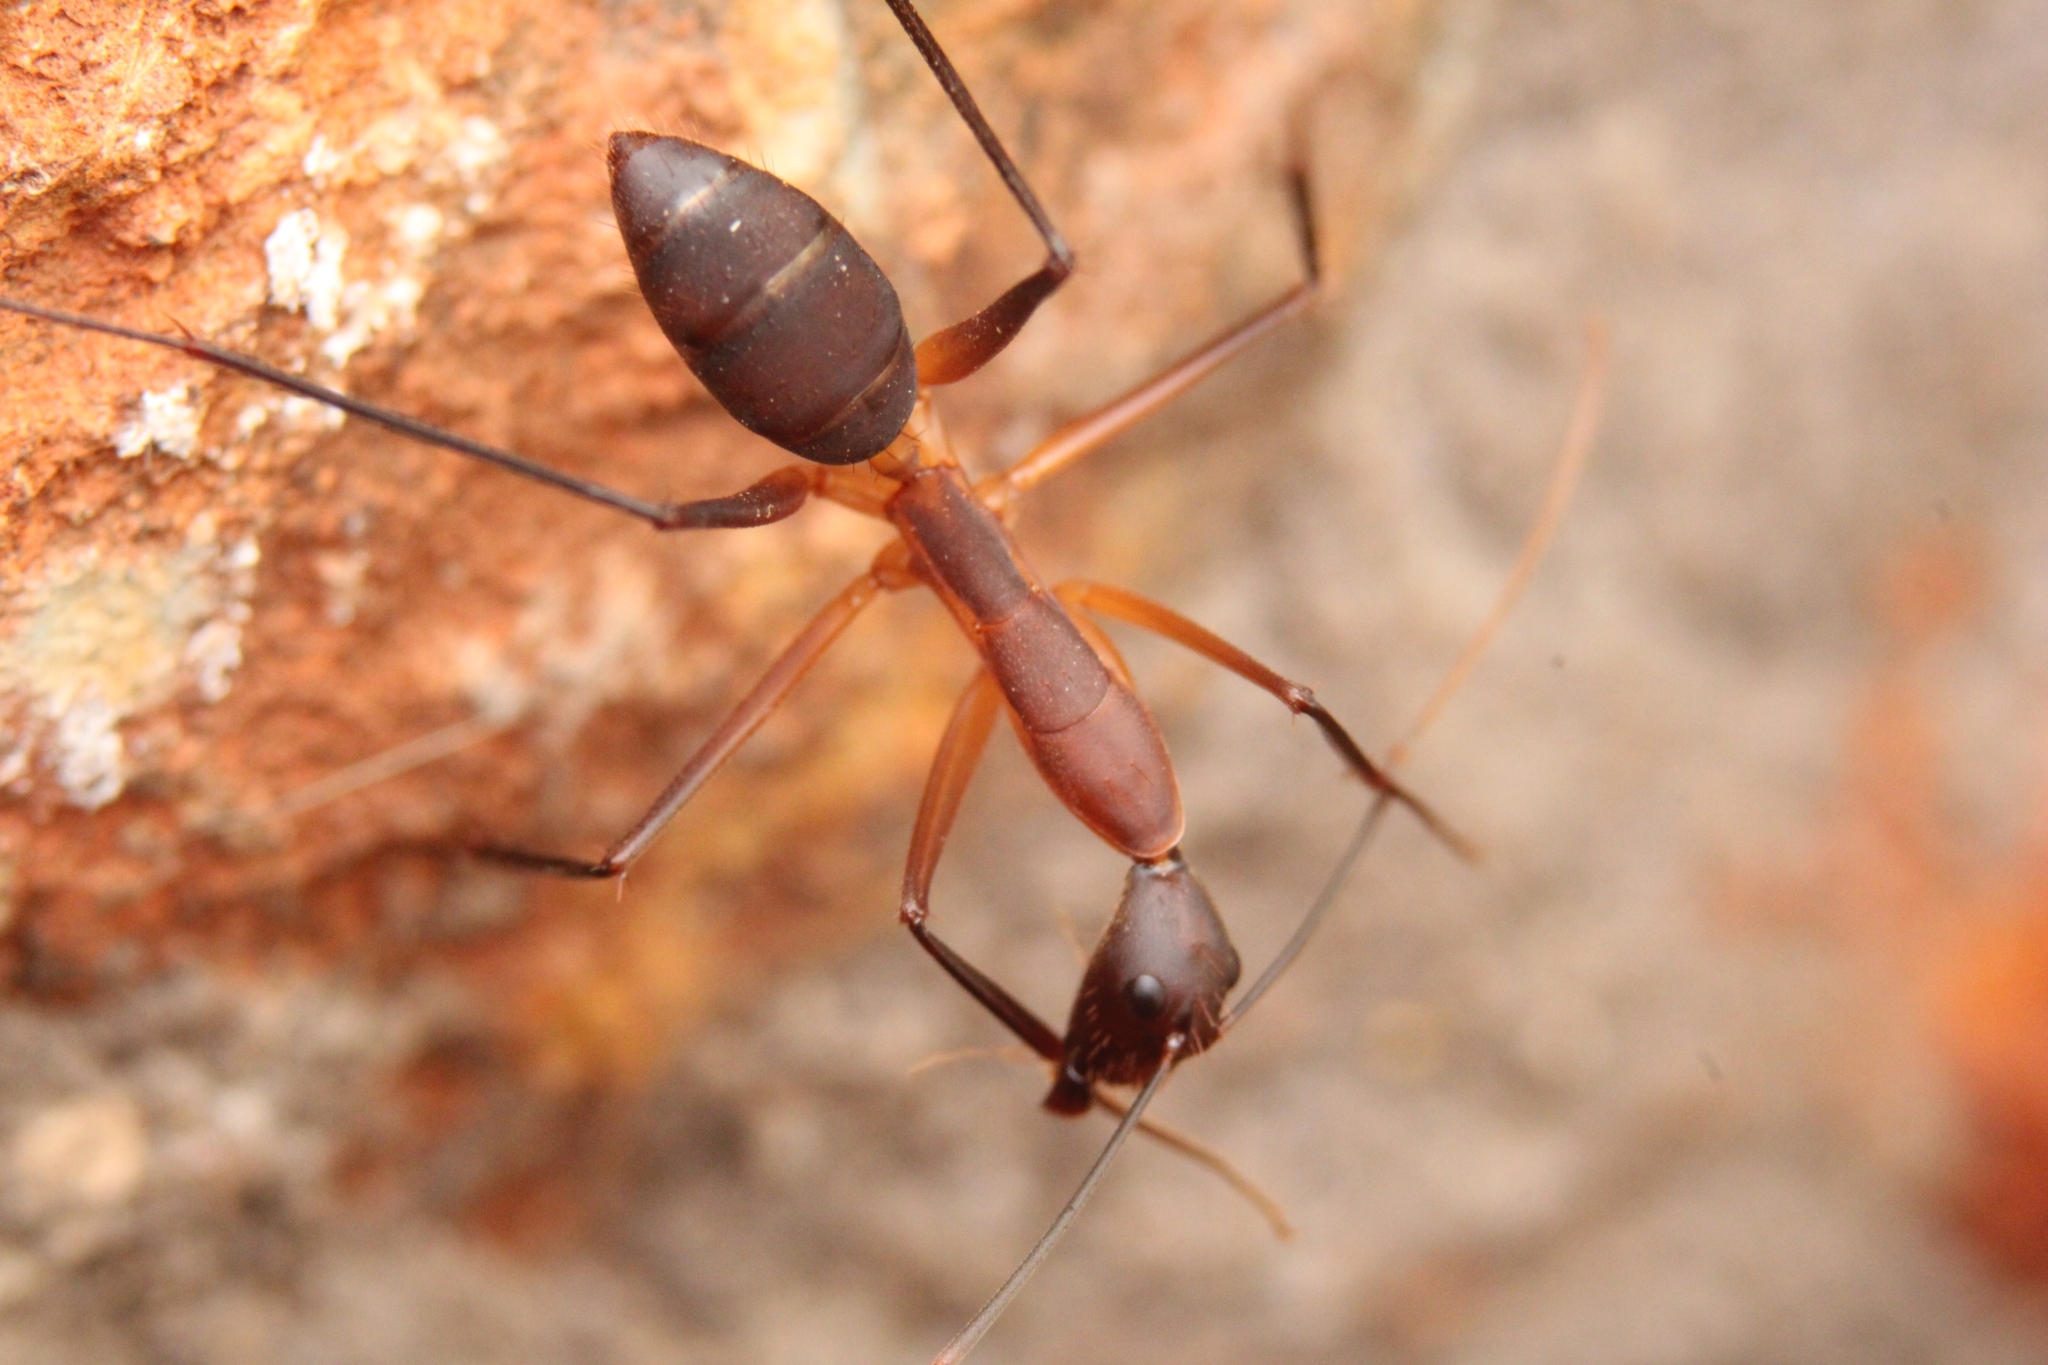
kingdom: Animalia
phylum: Arthropoda
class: Insecta
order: Hymenoptera
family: Formicidae
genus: Camponotus
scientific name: Camponotus etiolipes
